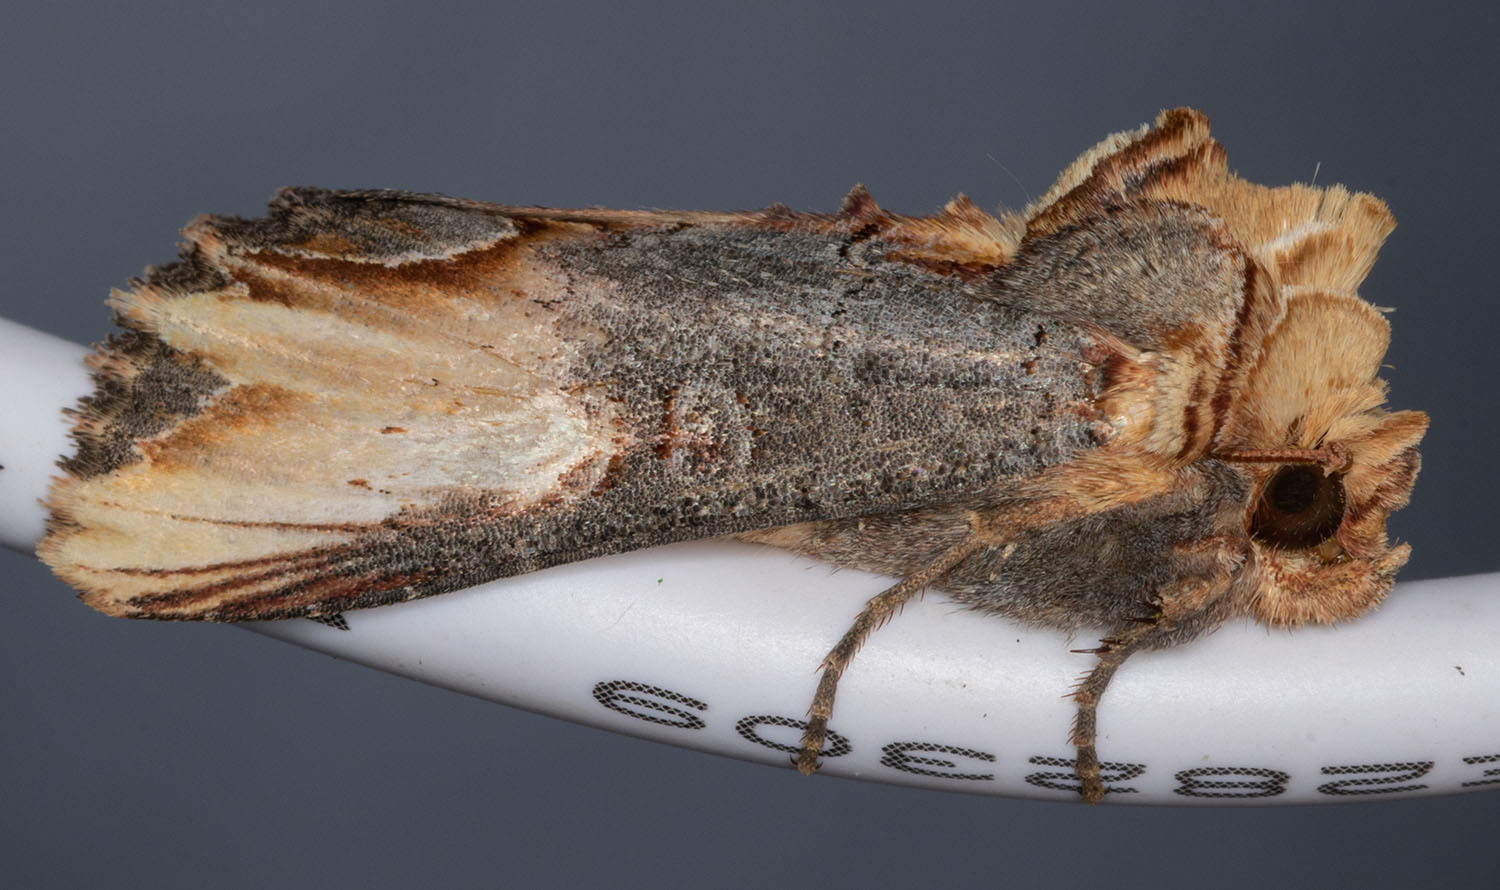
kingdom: Animalia
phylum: Arthropoda
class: Insecta
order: Lepidoptera
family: Noctuidae
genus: Admetovis
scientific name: Admetovis similaris
